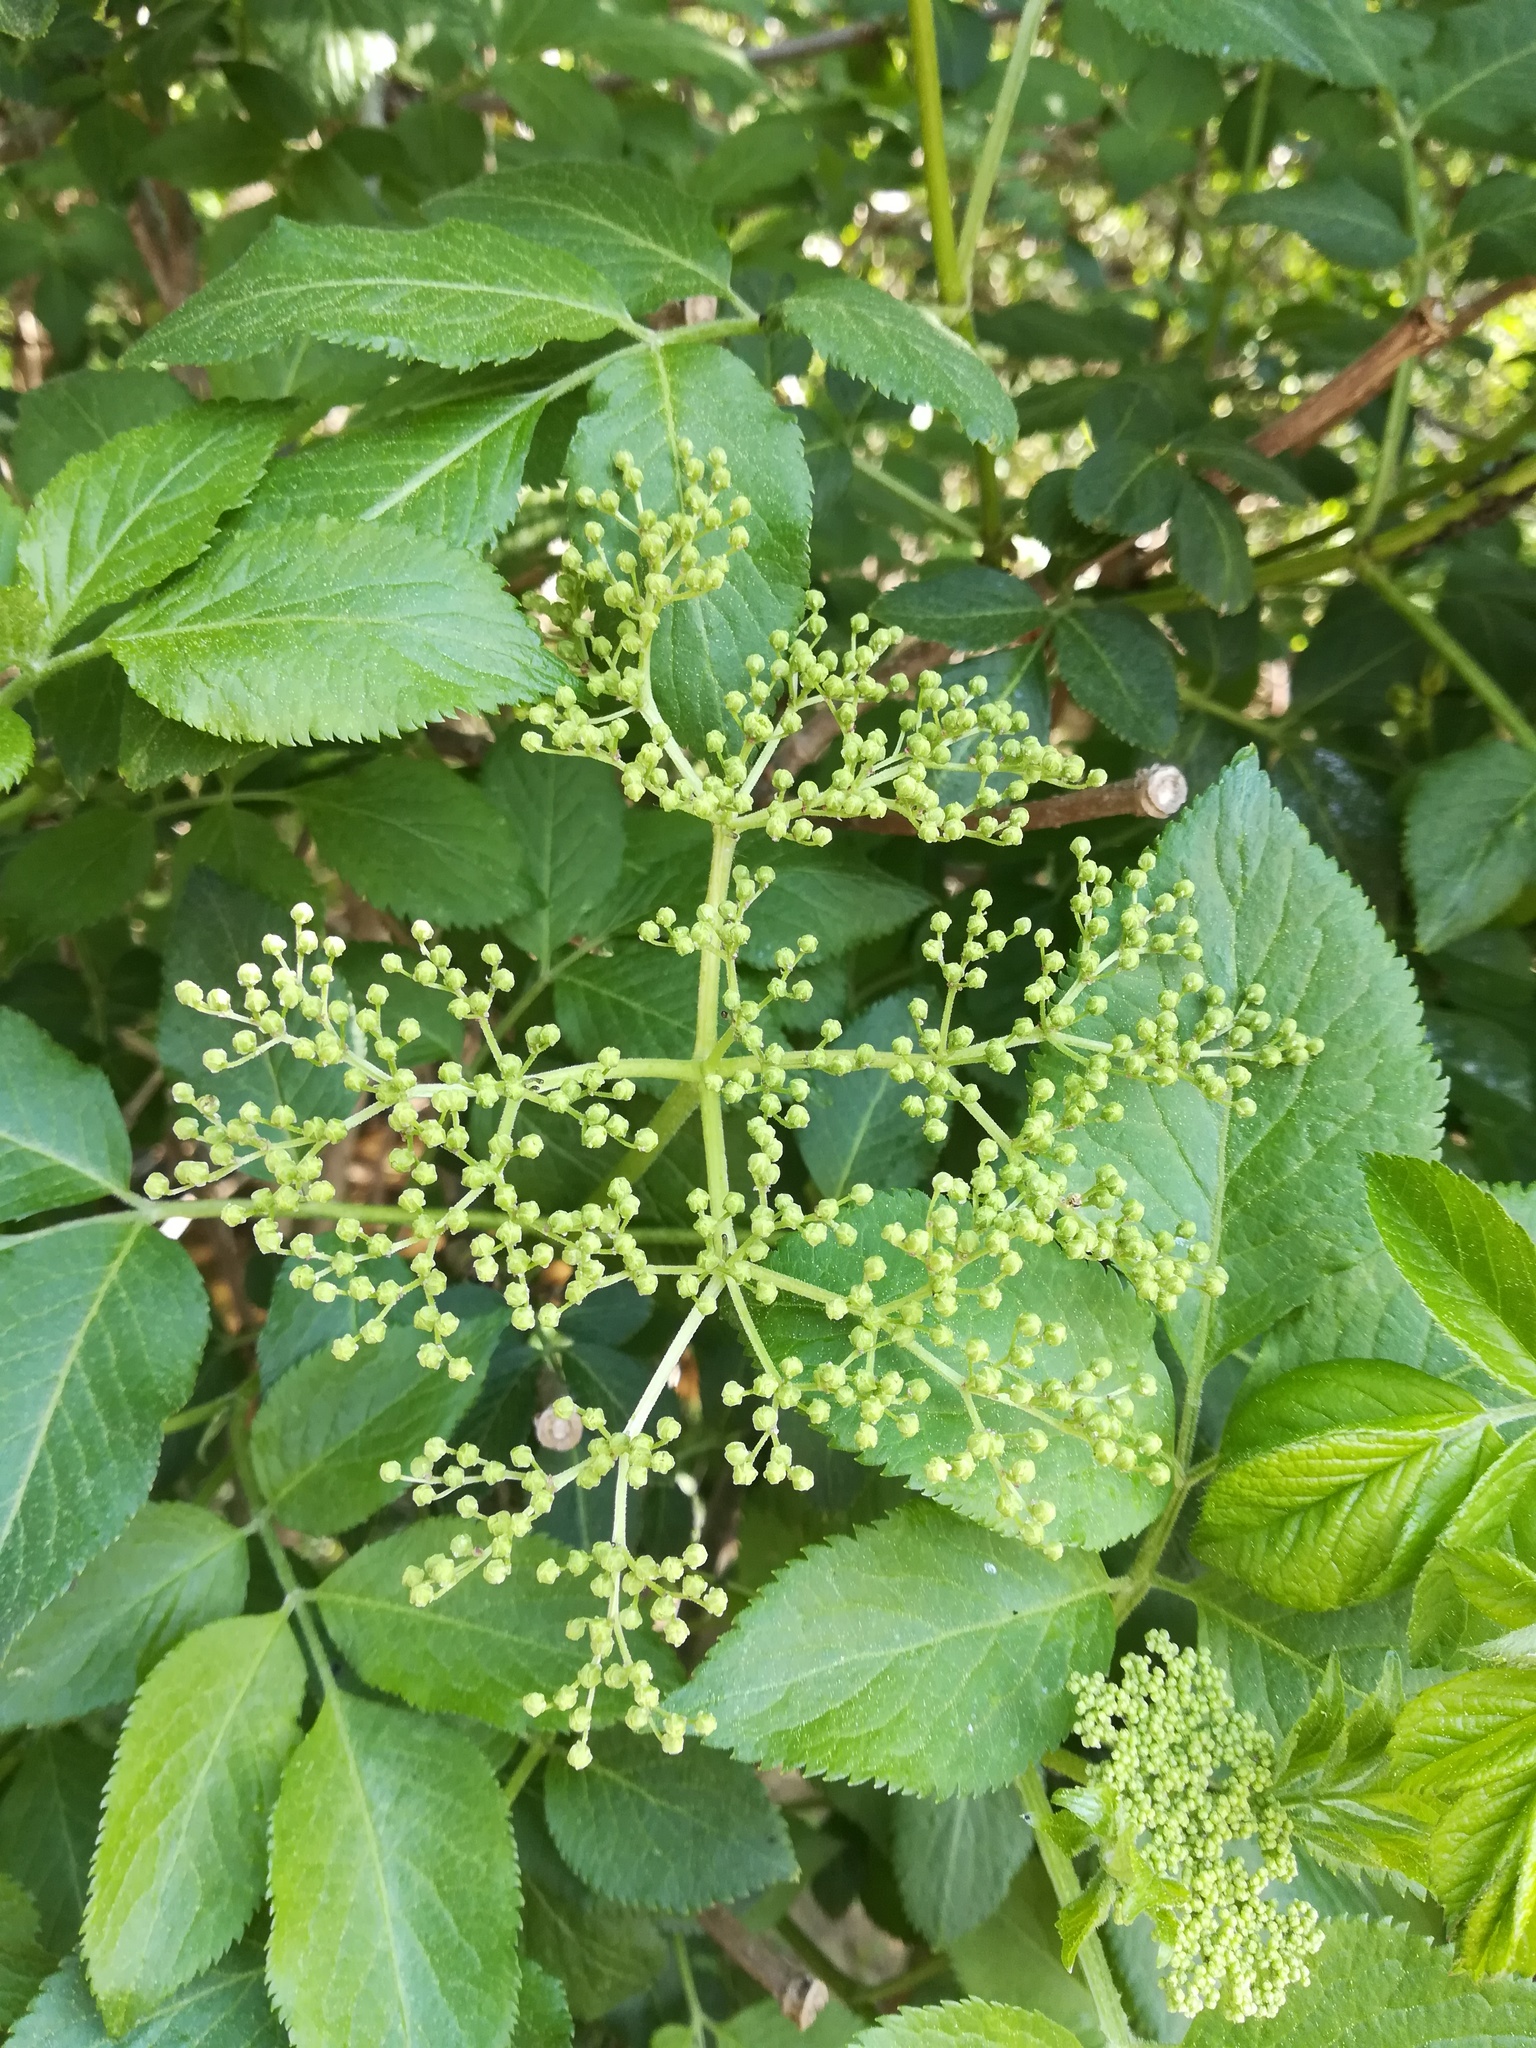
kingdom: Plantae
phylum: Tracheophyta
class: Magnoliopsida
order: Dipsacales
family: Viburnaceae
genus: Sambucus
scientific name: Sambucus nigra
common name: Elder
